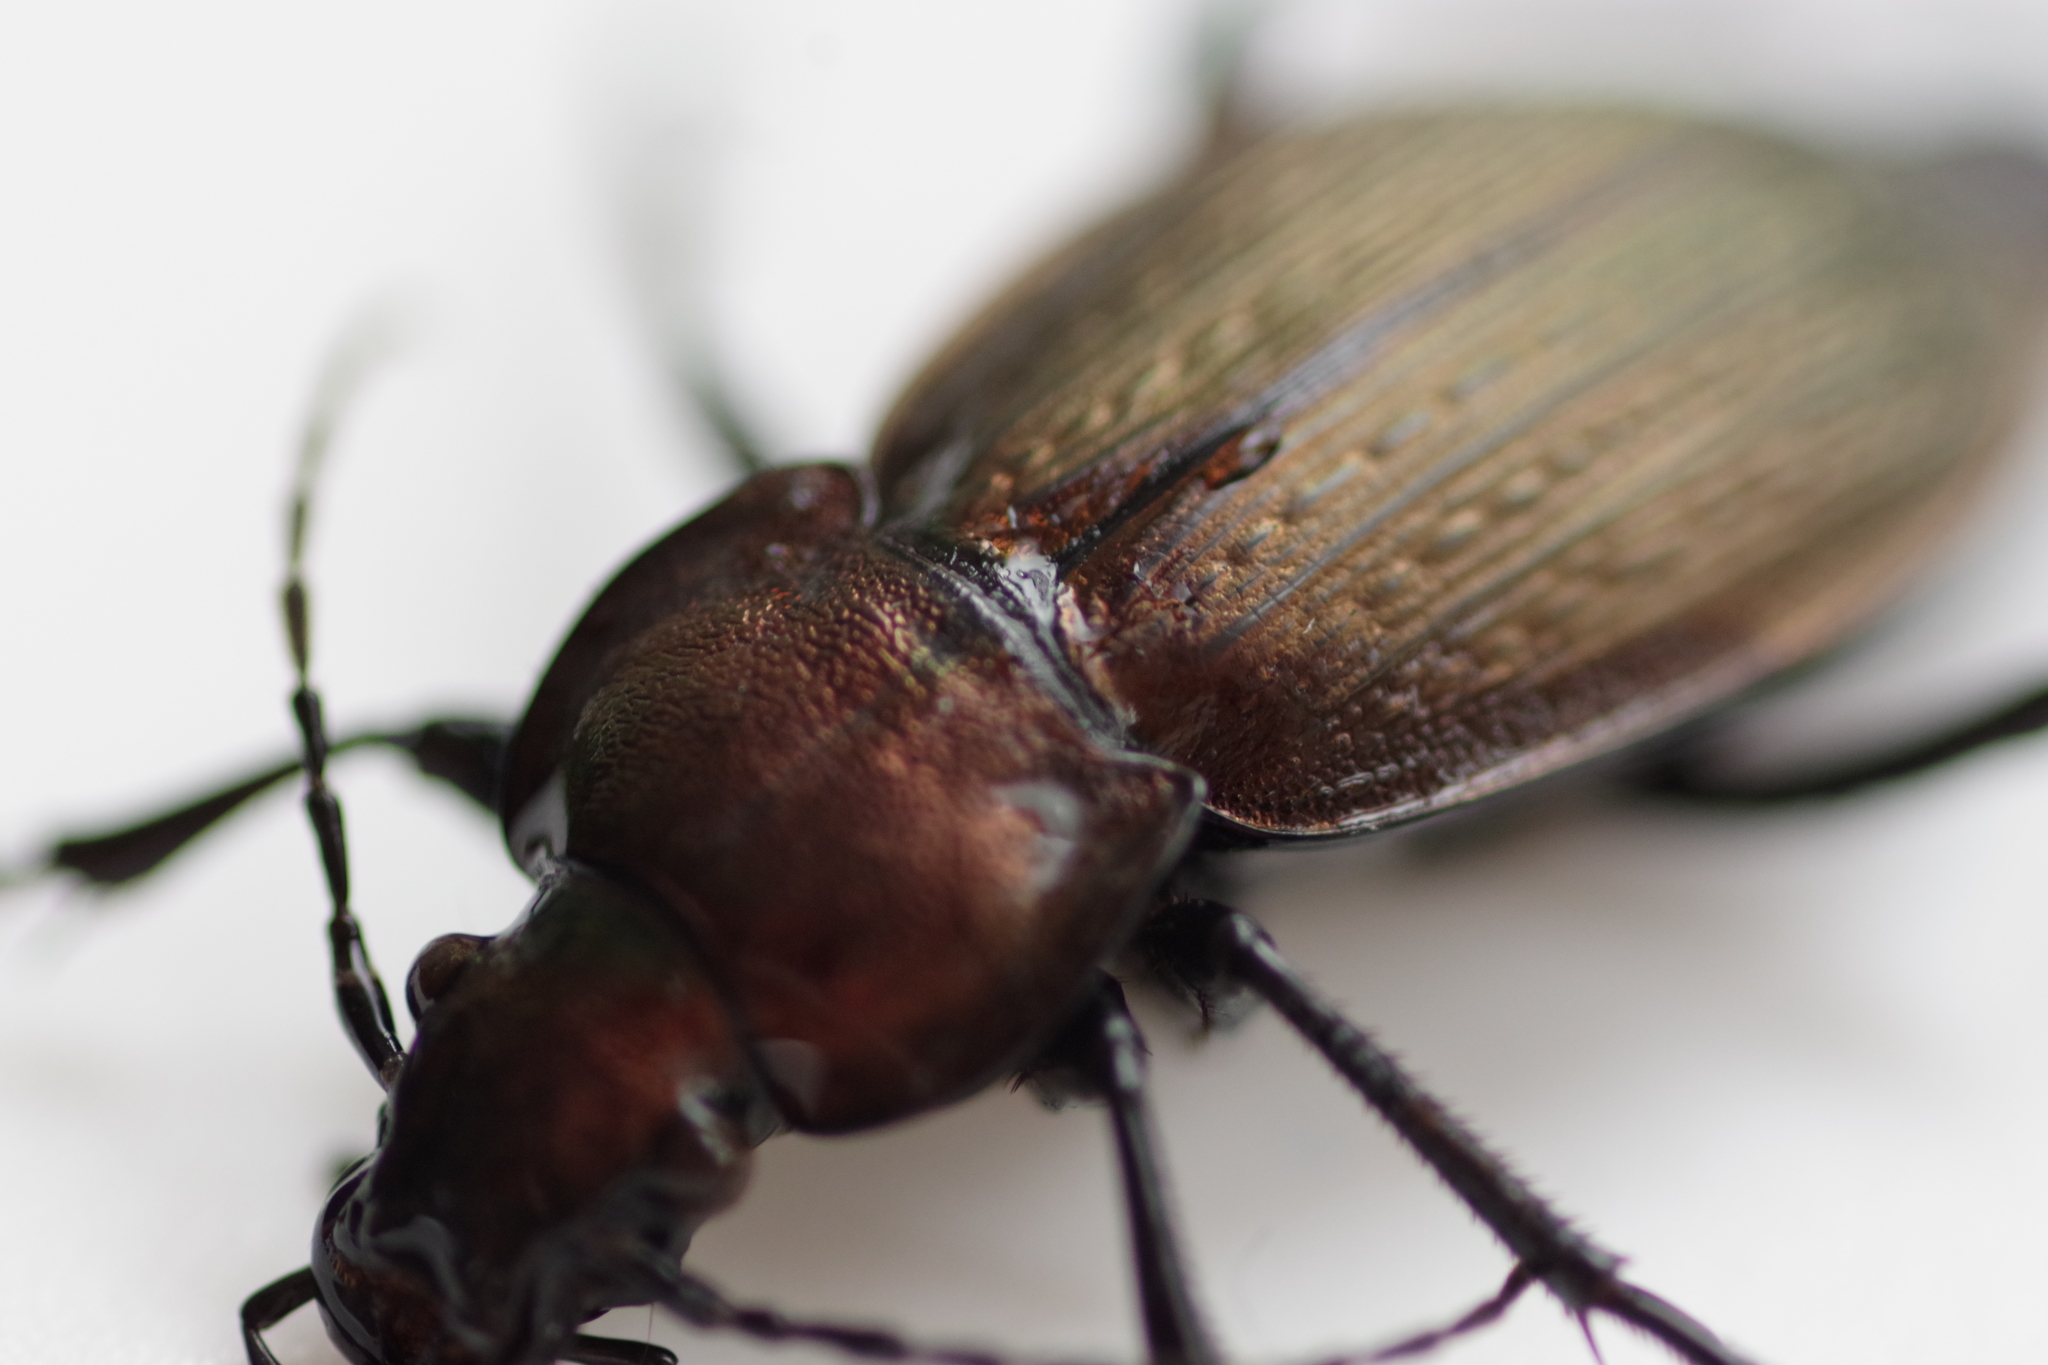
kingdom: Animalia
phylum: Arthropoda
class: Insecta
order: Coleoptera
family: Carabidae
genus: Carabus
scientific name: Carabus monilis
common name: Necklace ground beetle
